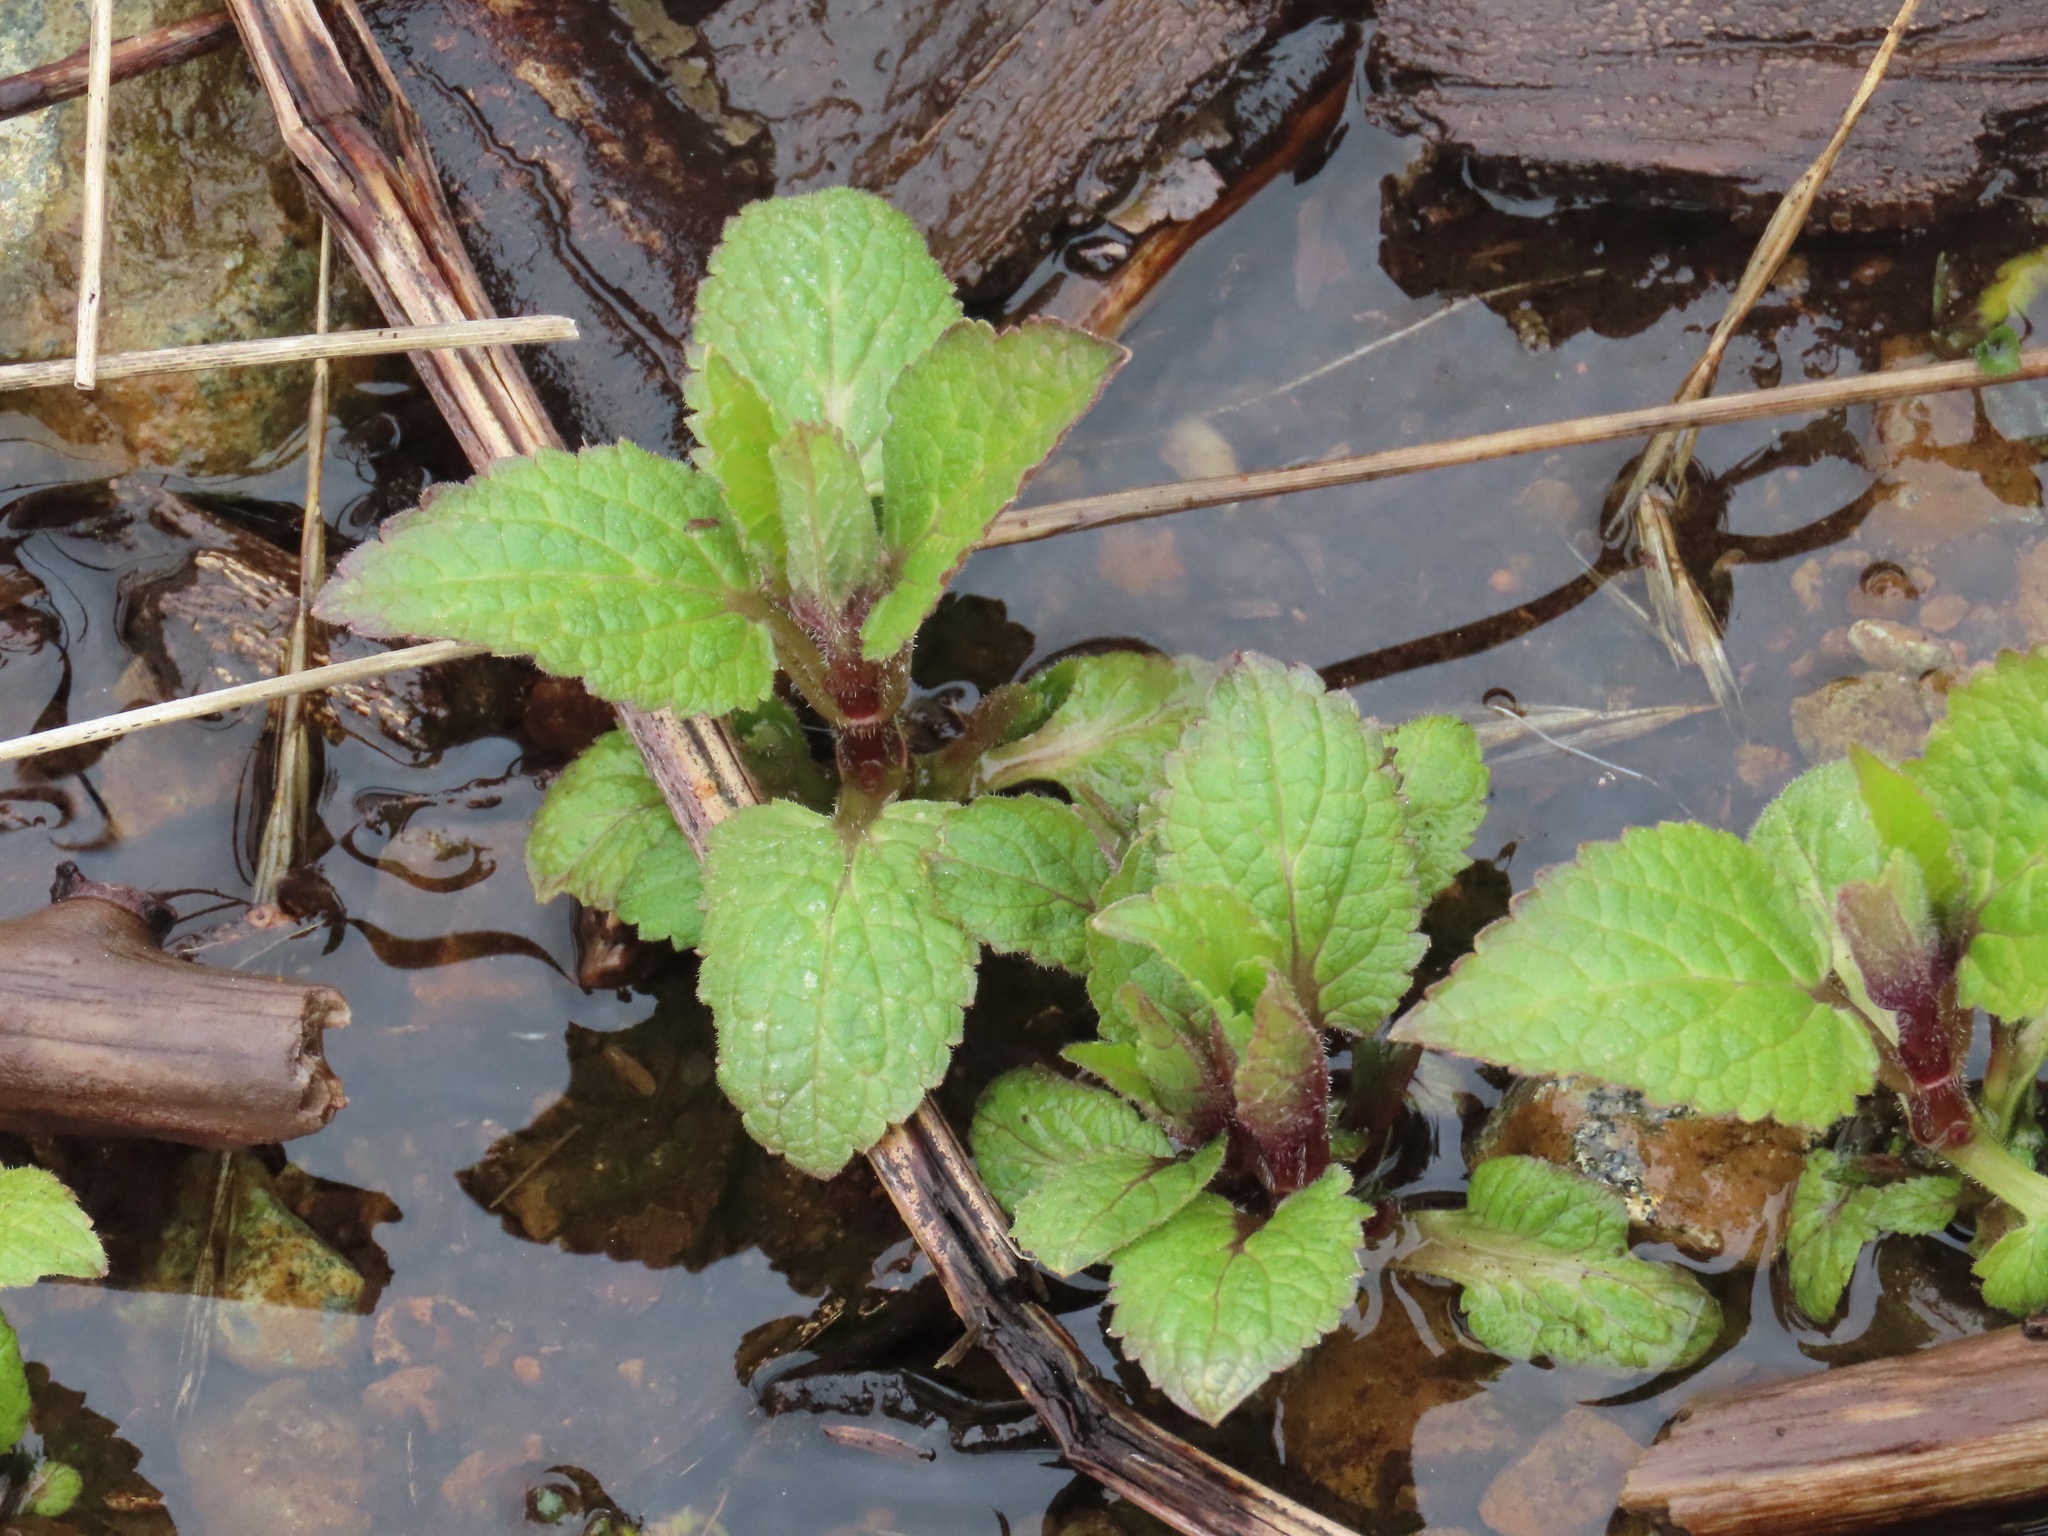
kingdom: Plantae
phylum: Tracheophyta
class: Magnoliopsida
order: Lamiales
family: Lamiaceae
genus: Stachys
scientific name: Stachys
